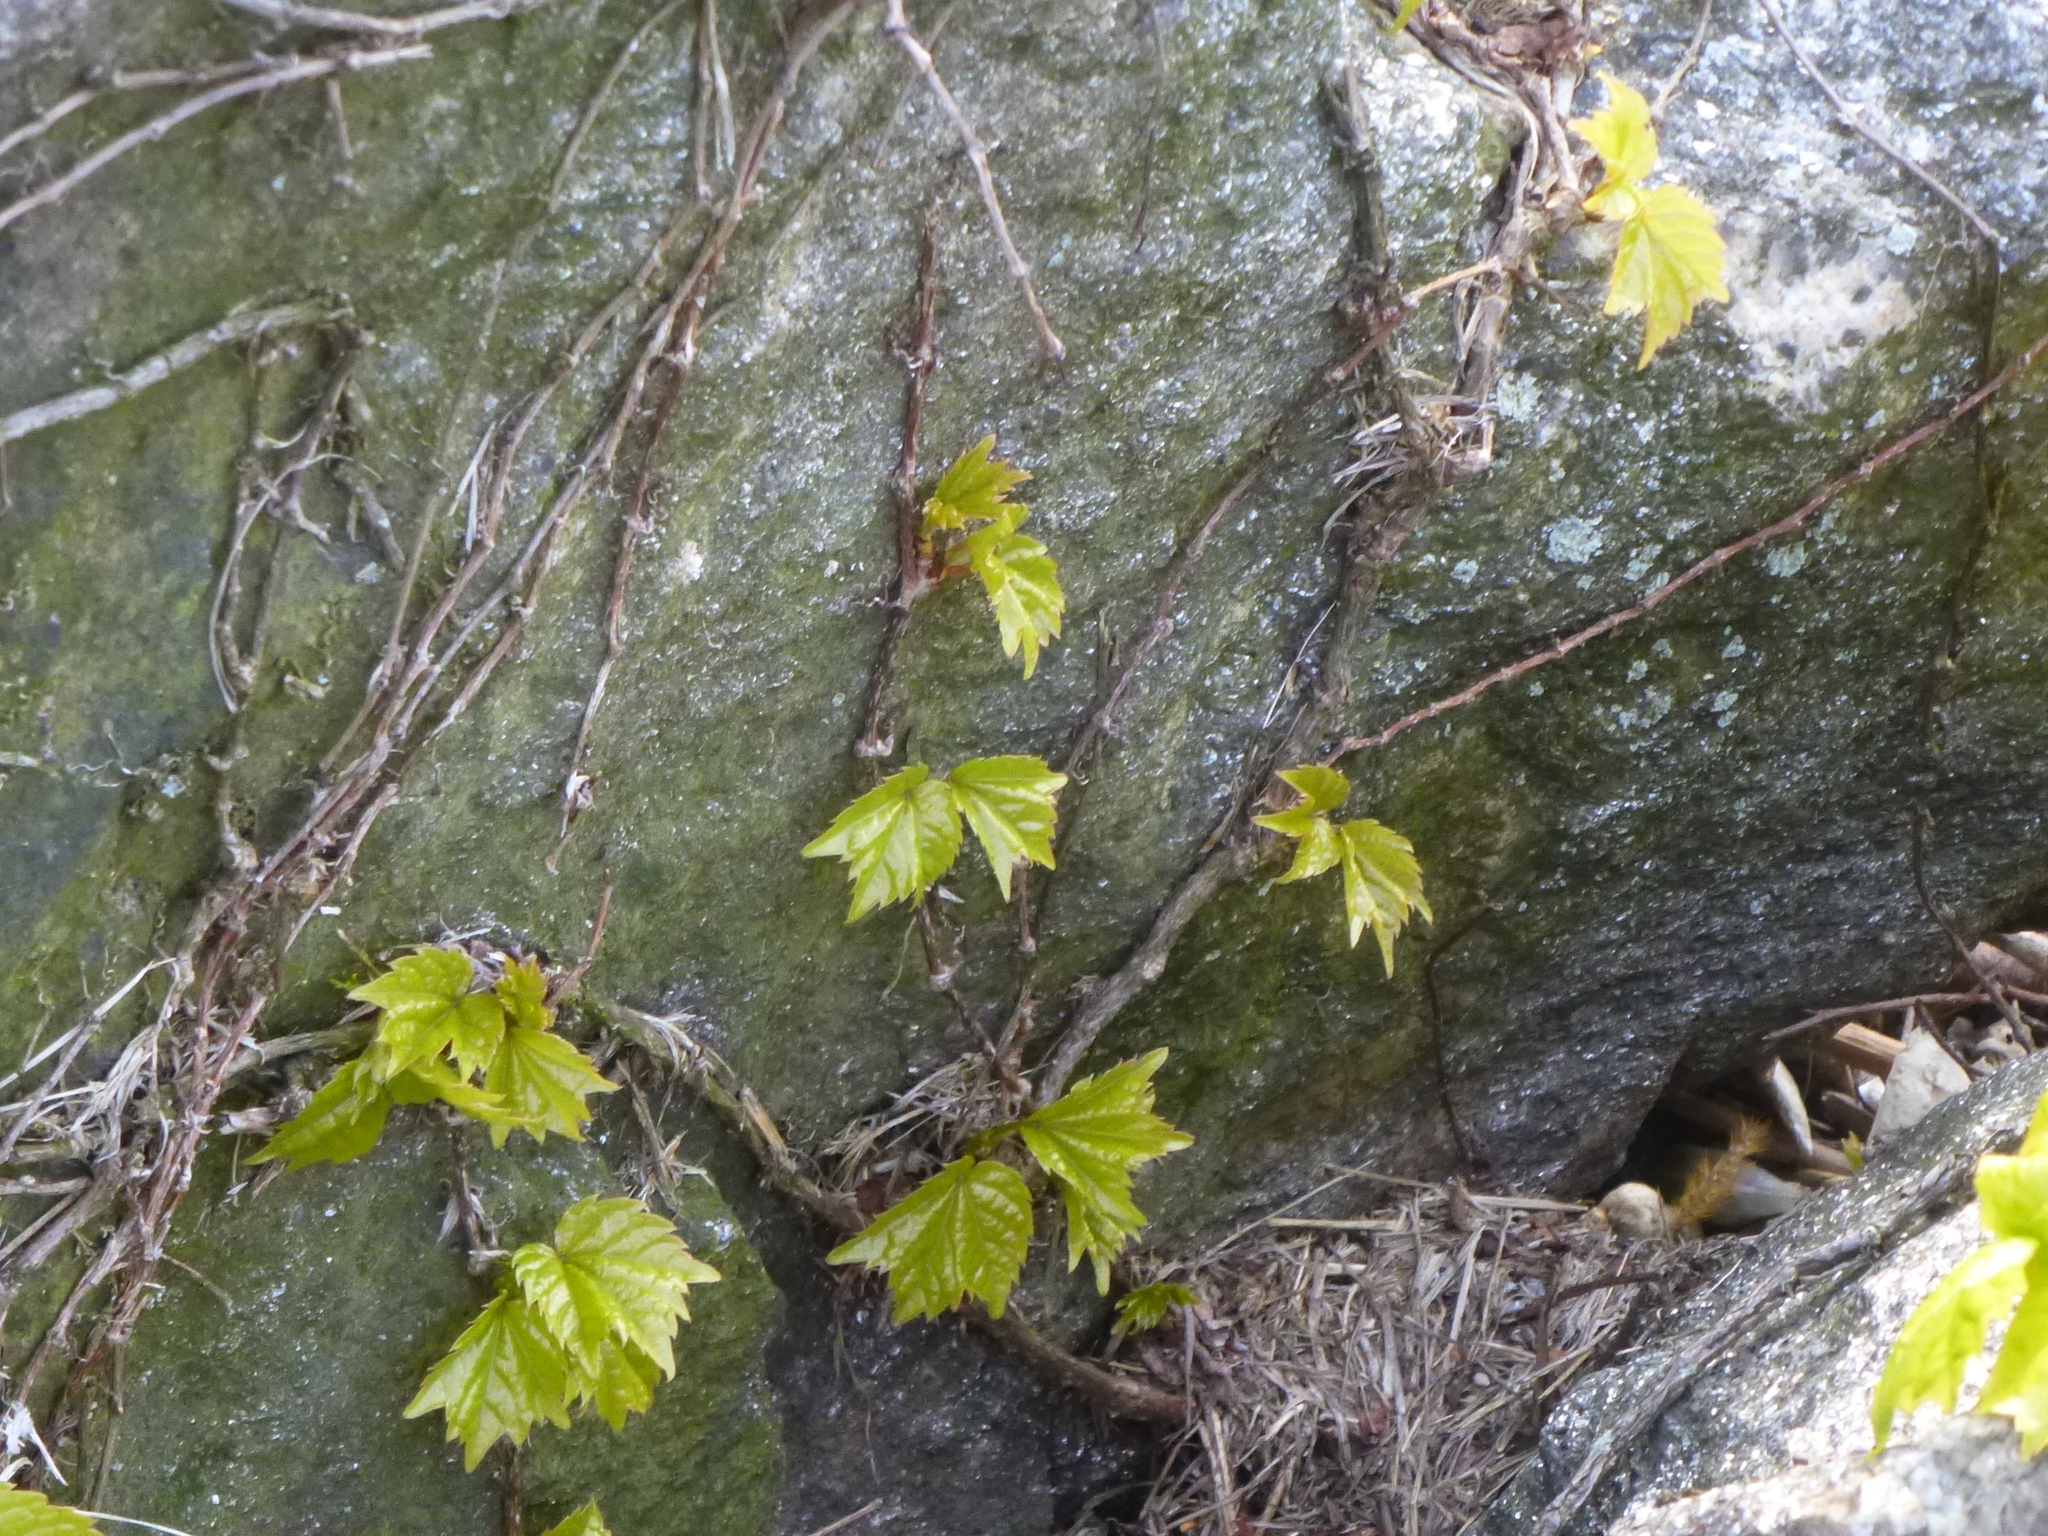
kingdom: Plantae
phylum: Tracheophyta
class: Magnoliopsida
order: Vitales
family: Vitaceae
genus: Parthenocissus
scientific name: Parthenocissus tricuspidata
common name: Boston ivy
